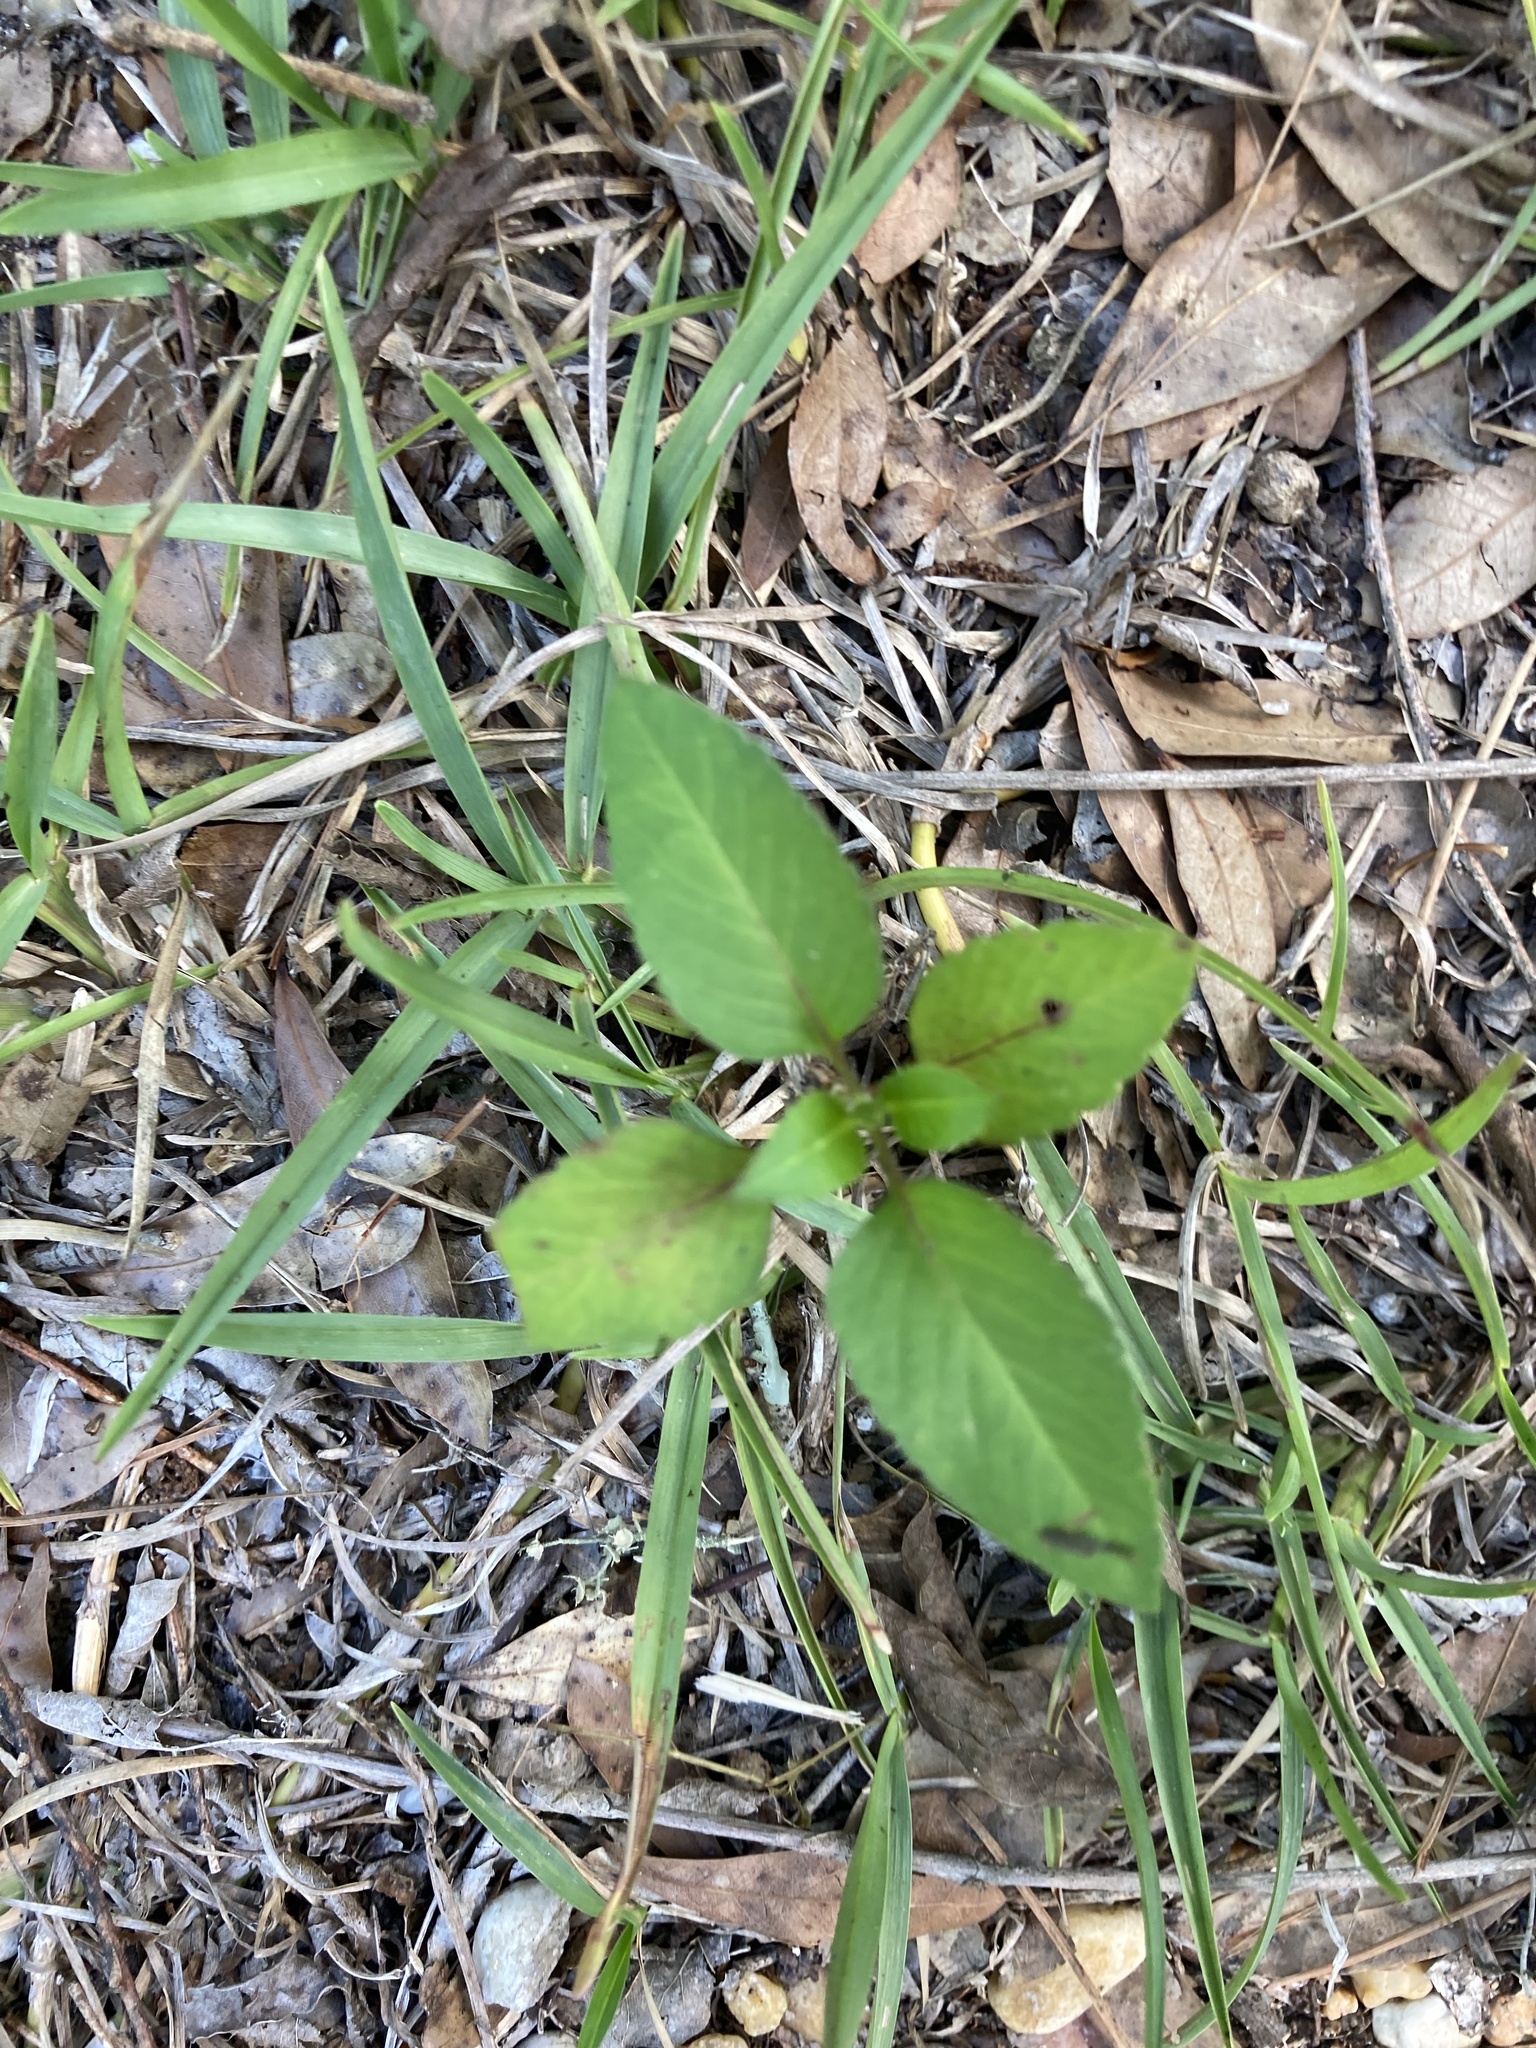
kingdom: Plantae
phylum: Tracheophyta
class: Magnoliopsida
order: Asterales
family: Asteraceae
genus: Bidens
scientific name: Bidens alba
